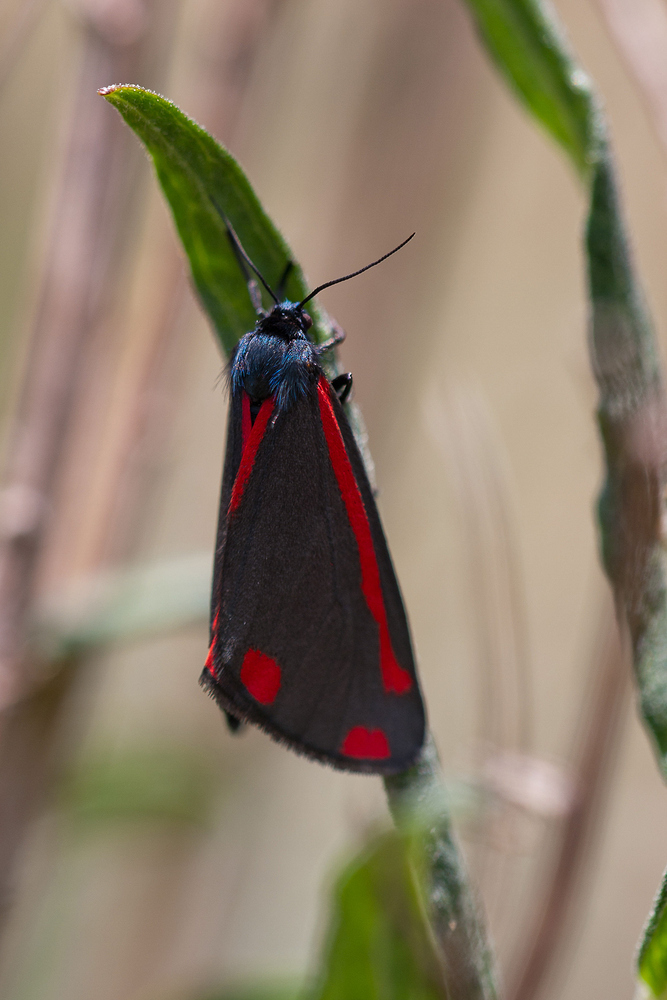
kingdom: Animalia
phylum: Arthropoda
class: Insecta
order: Lepidoptera
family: Erebidae
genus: Tyria
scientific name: Tyria jacobaeae
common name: Cinnabar
